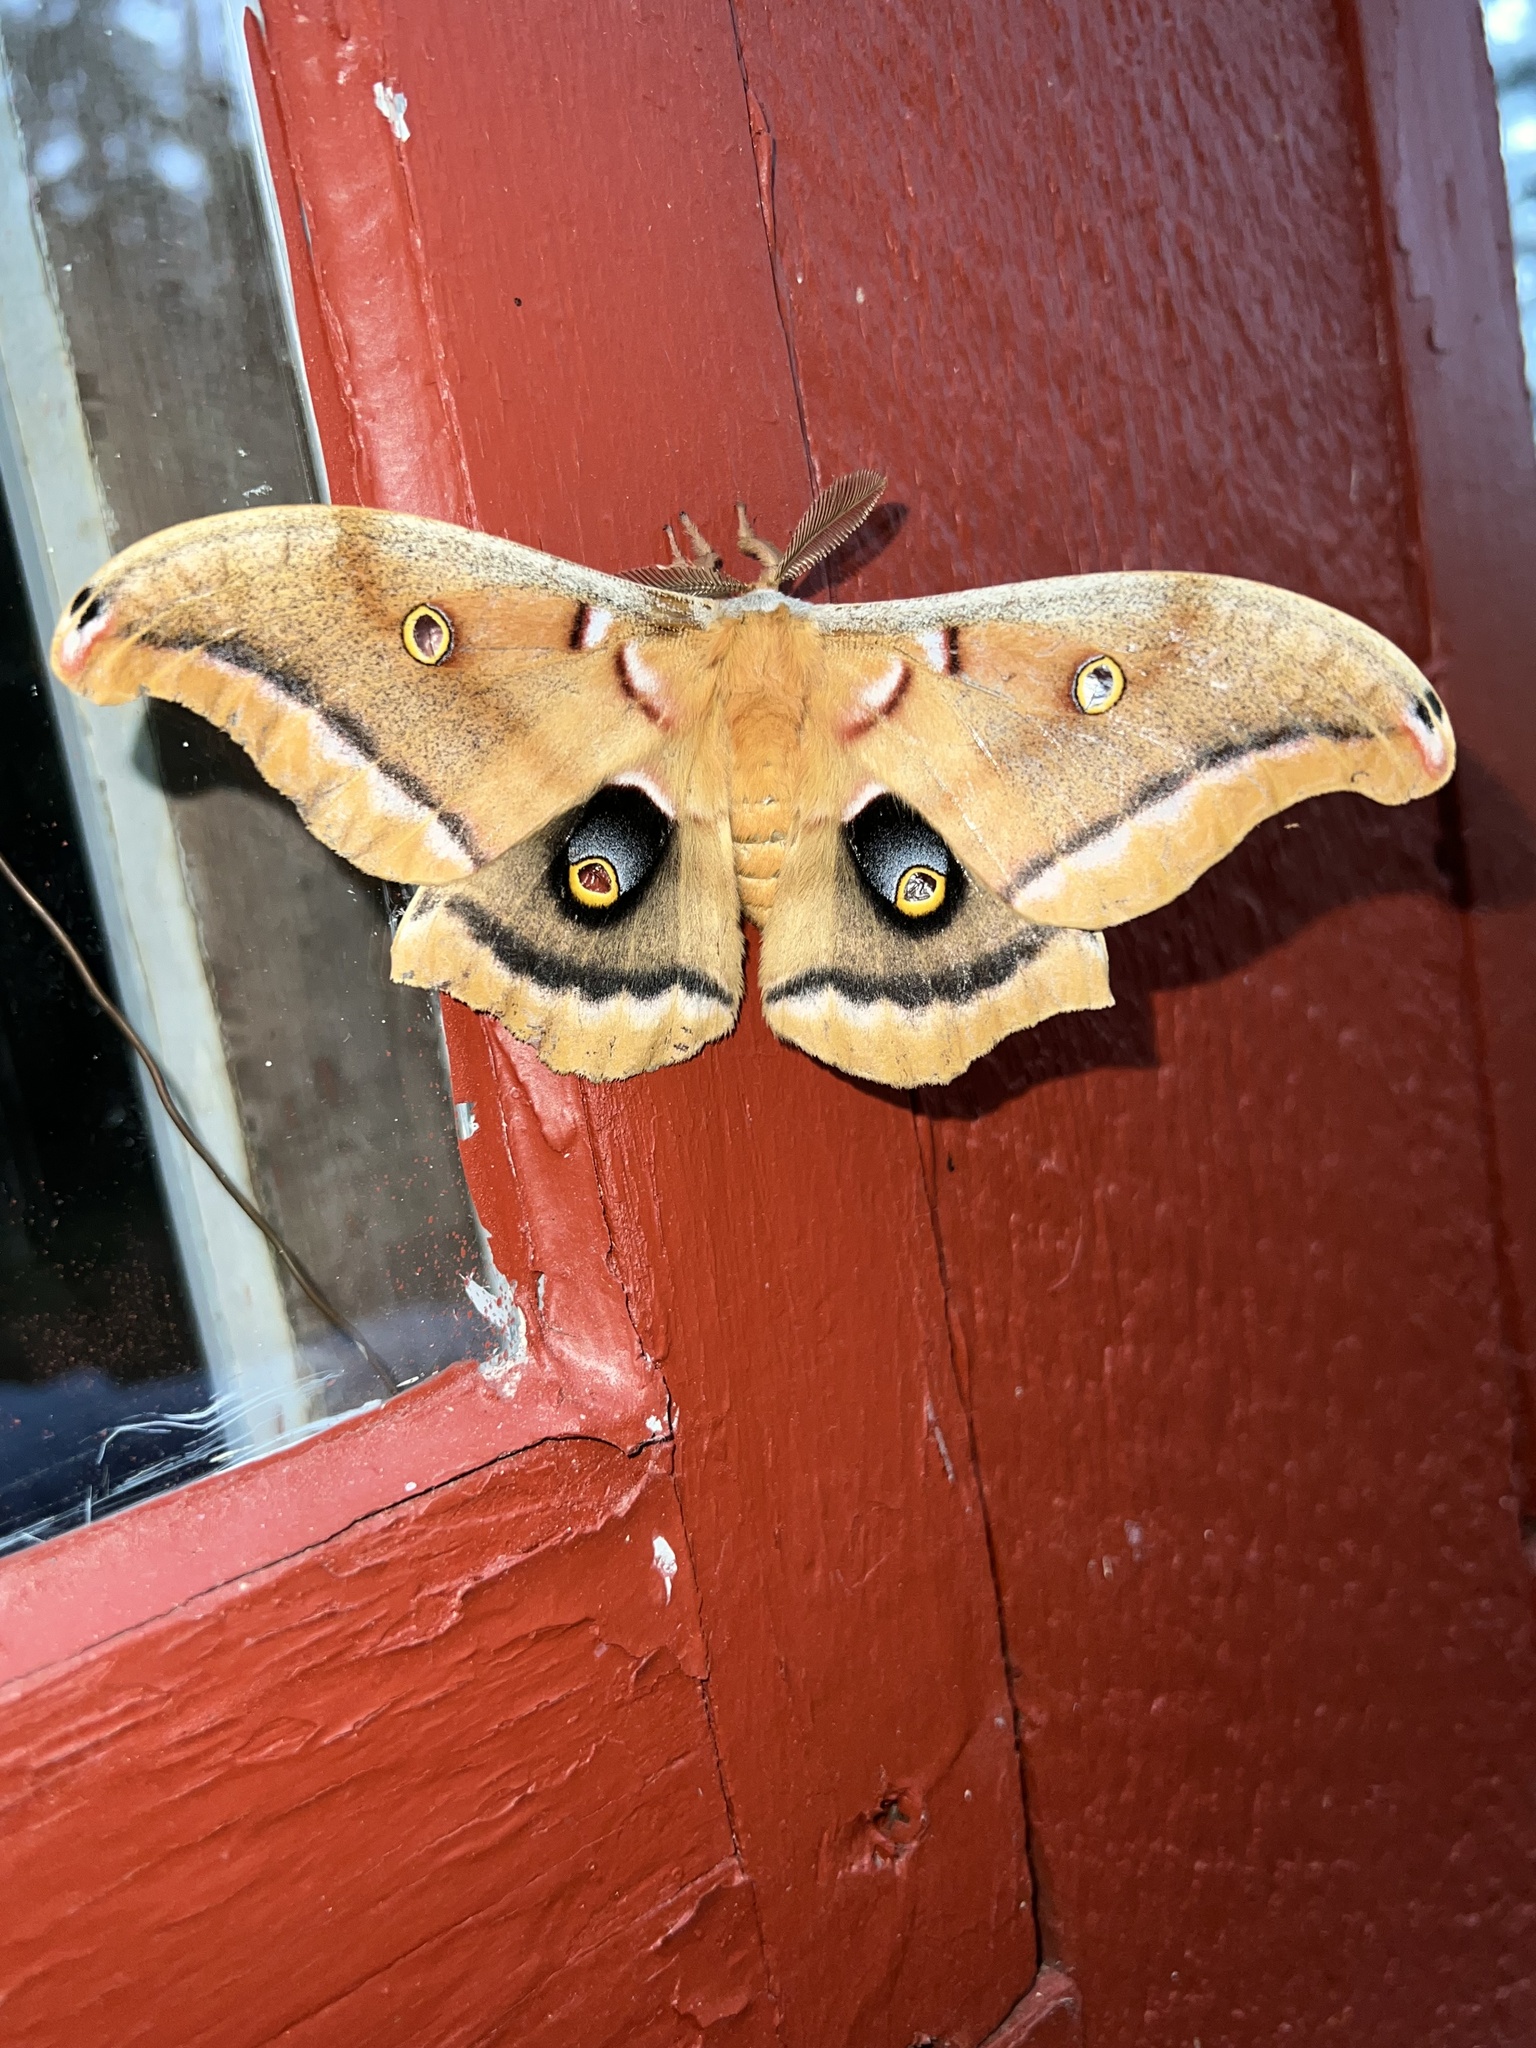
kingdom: Animalia
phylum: Arthropoda
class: Insecta
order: Lepidoptera
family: Saturniidae
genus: Antheraea
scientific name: Antheraea polyphemus
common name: Polyphemus moth
